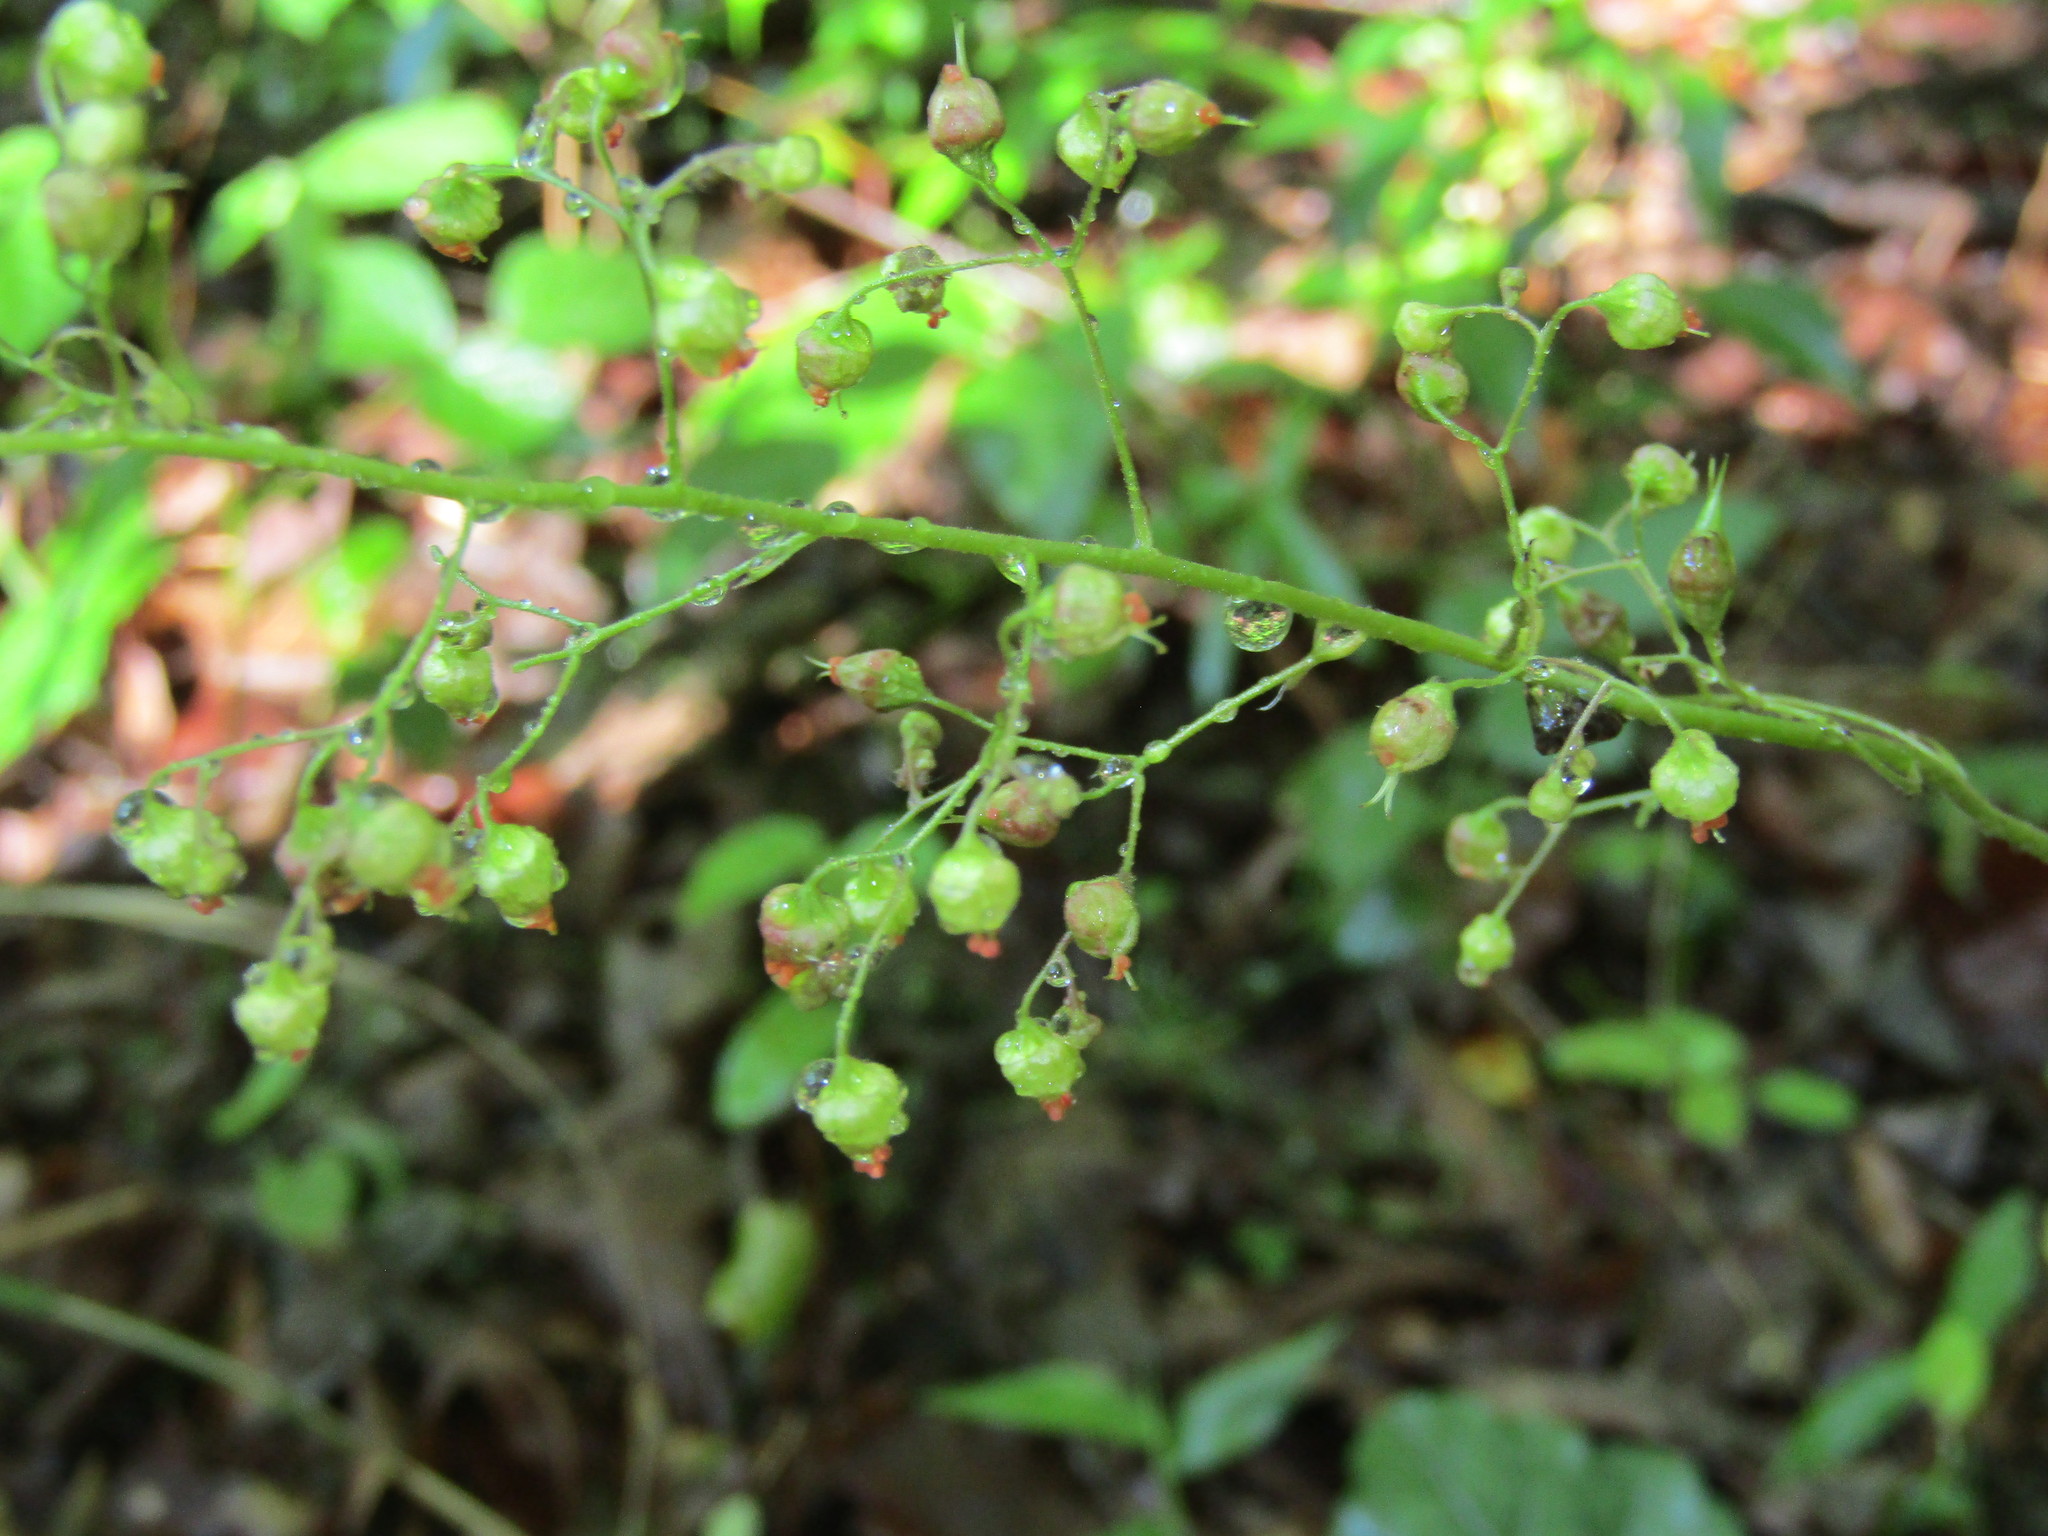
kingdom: Plantae
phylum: Tracheophyta
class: Magnoliopsida
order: Saxifragales
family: Saxifragaceae
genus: Heuchera
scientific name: Heuchera caroliniana
